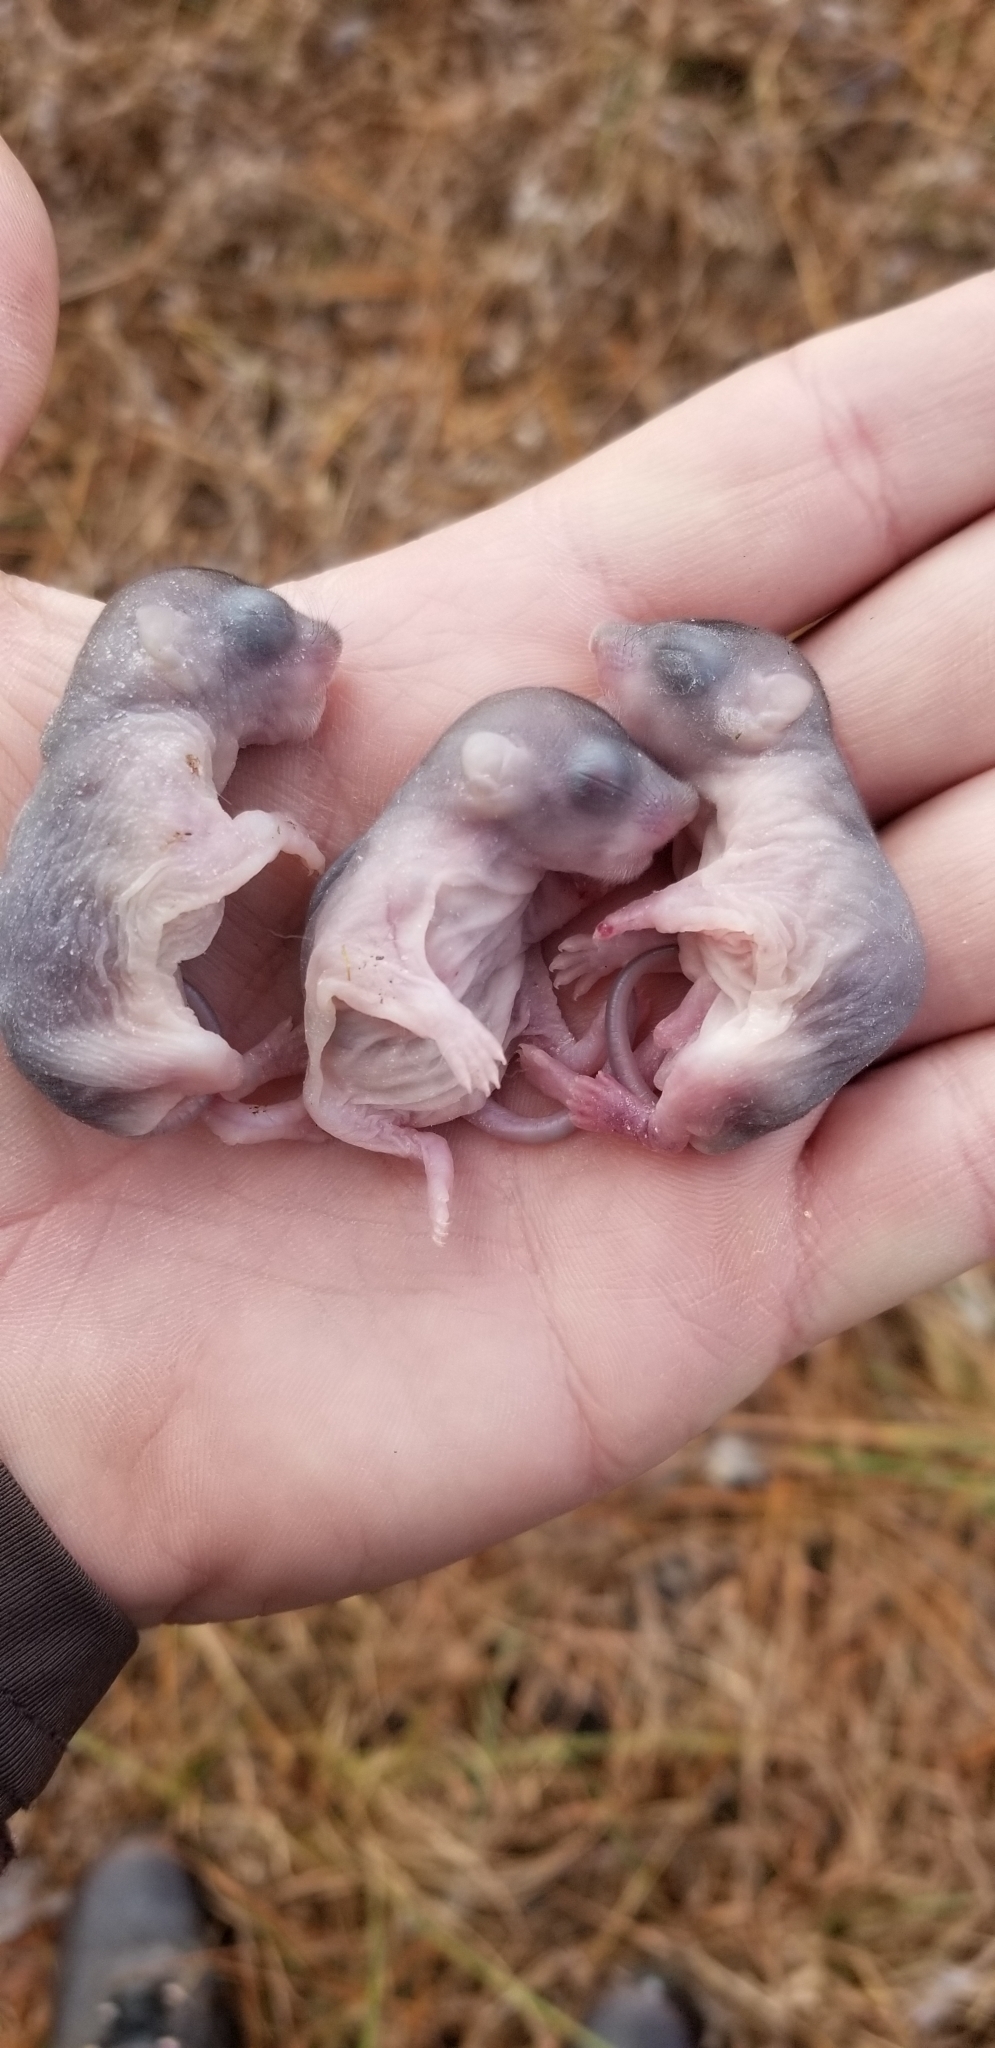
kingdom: Animalia
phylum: Chordata
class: Mammalia
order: Rodentia
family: Sciuridae
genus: Glaucomys
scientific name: Glaucomys volans
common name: Southern flying squirrel
